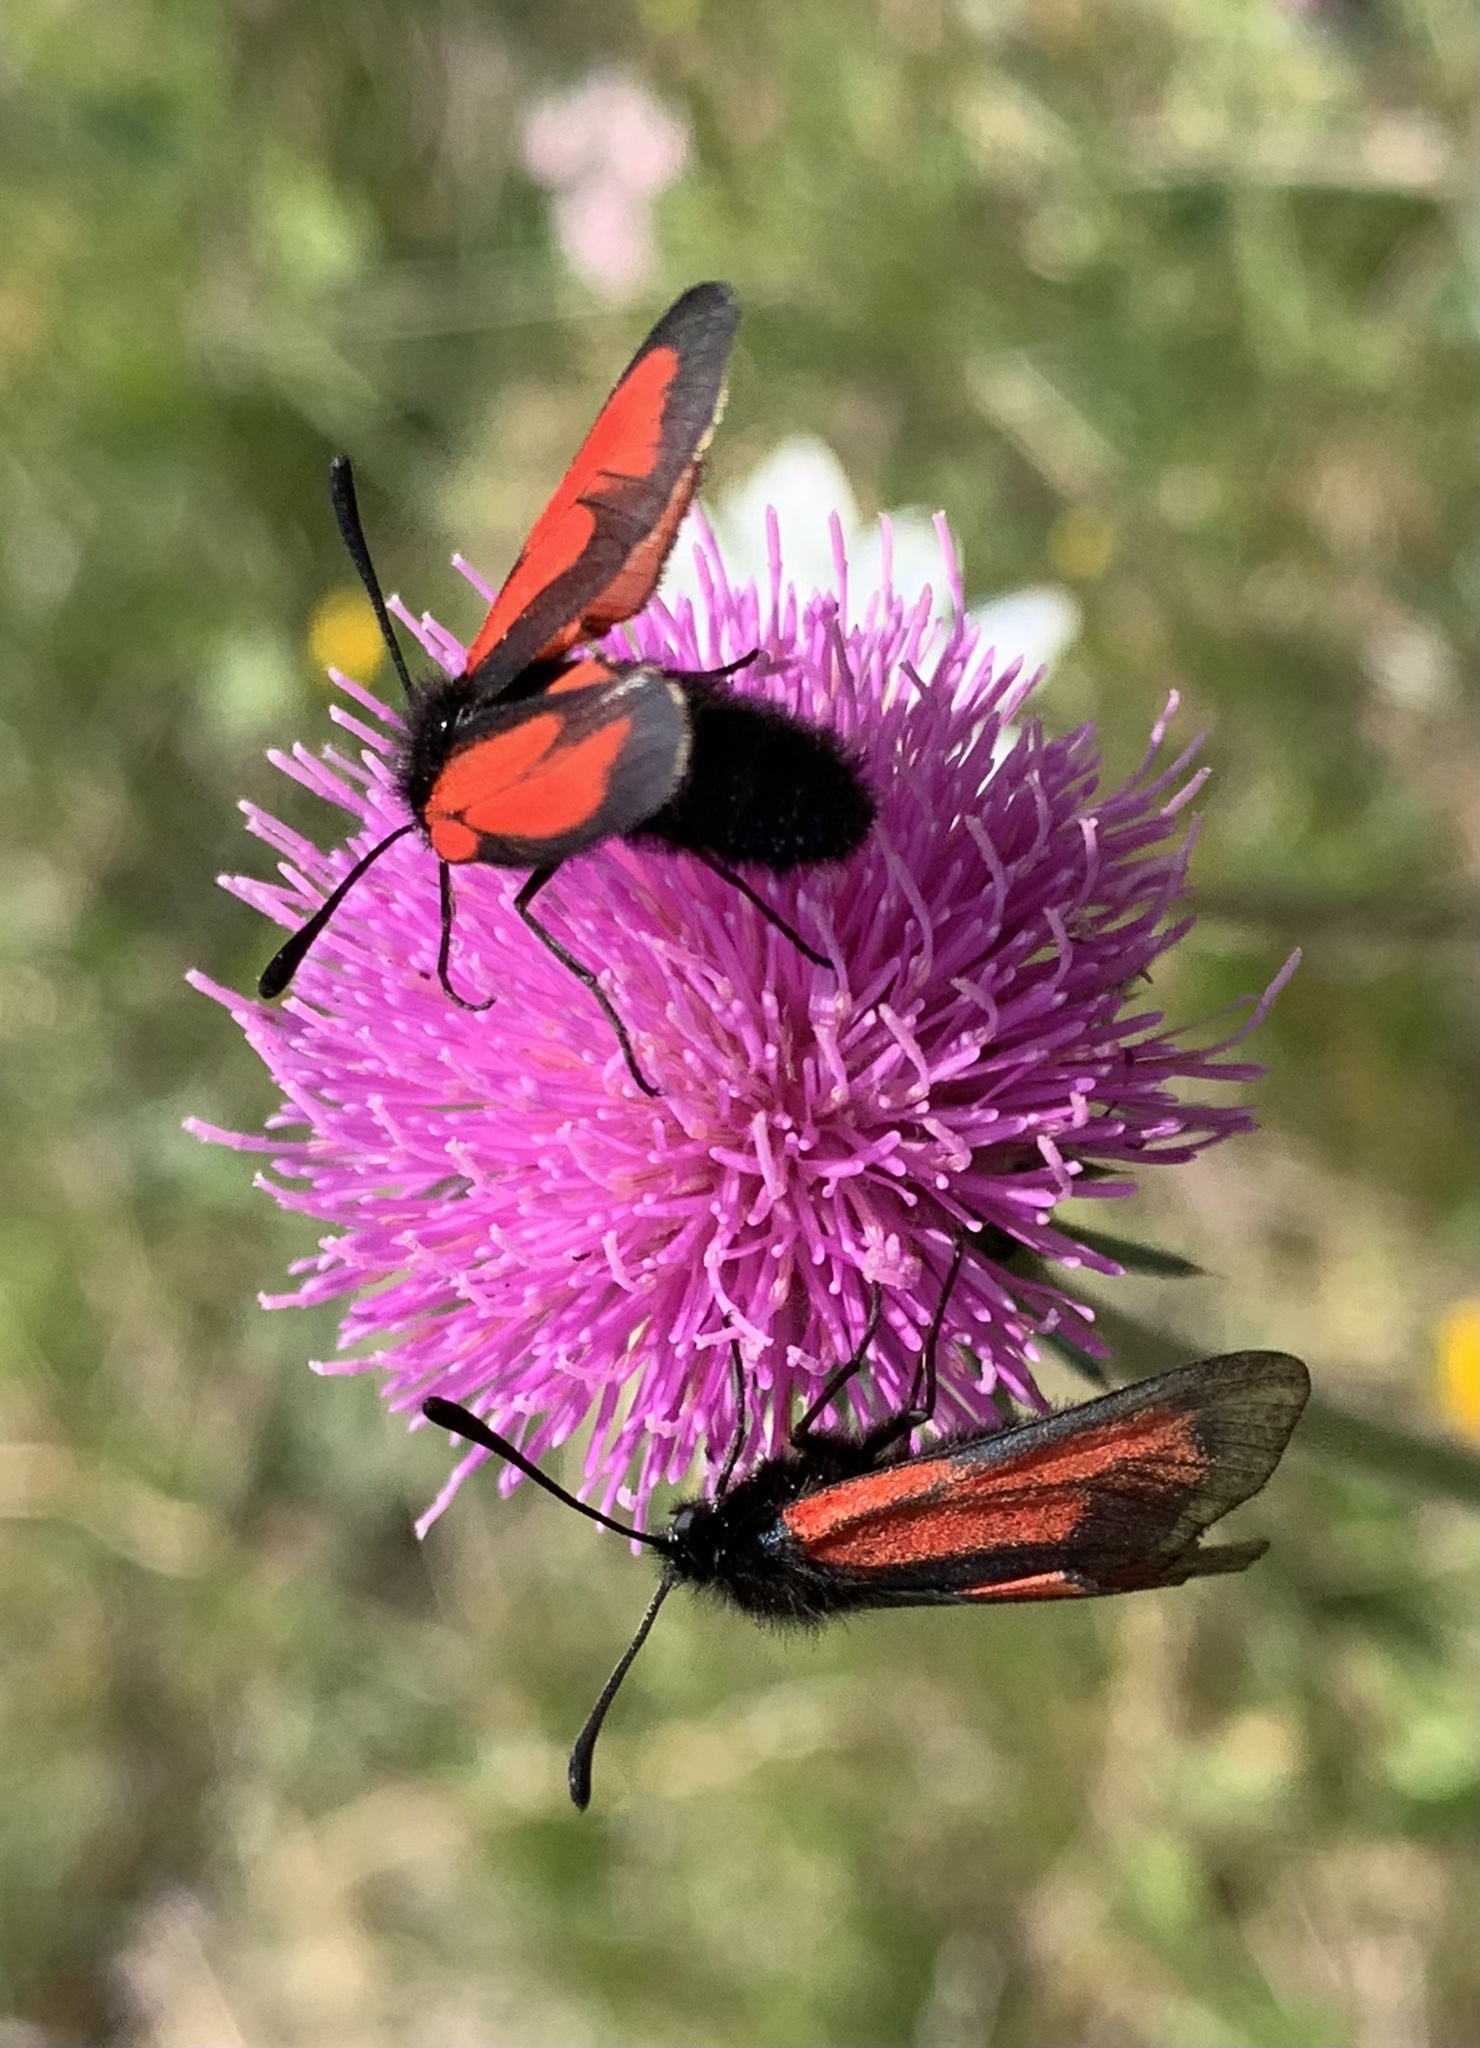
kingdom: Animalia
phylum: Arthropoda
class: Insecta
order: Lepidoptera
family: Zygaenidae
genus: Zygaena
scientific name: Zygaena purpuralis
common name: Transparent burnet
